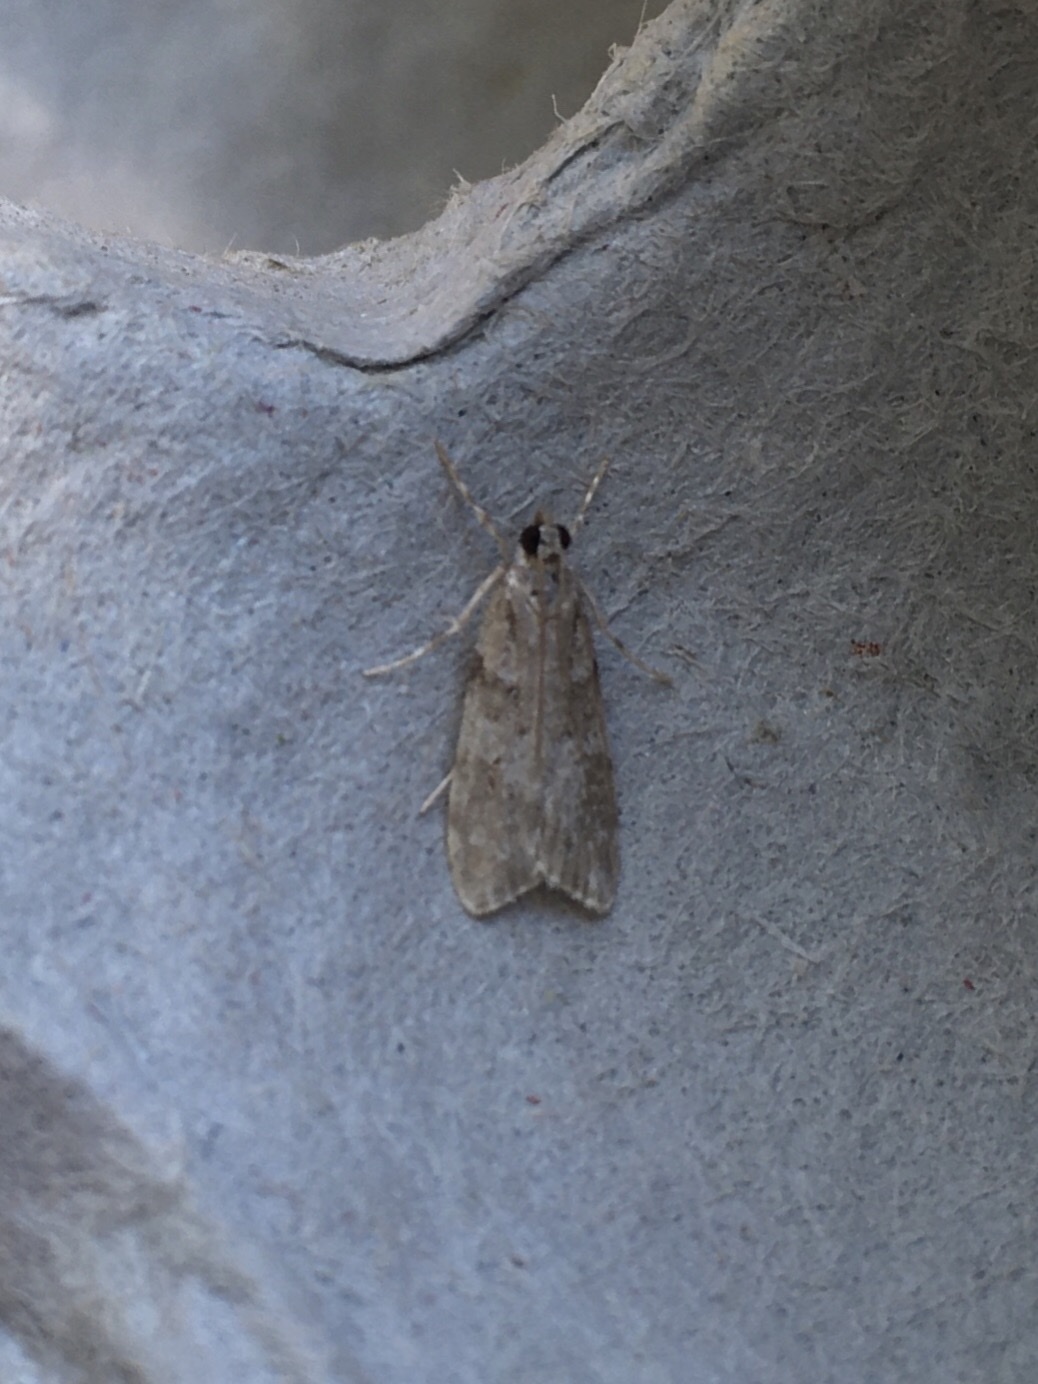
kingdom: Animalia
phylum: Arthropoda
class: Insecta
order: Lepidoptera
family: Crambidae
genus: Scoparia
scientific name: Scoparia biplagialis
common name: Double-striped scoparia moth
